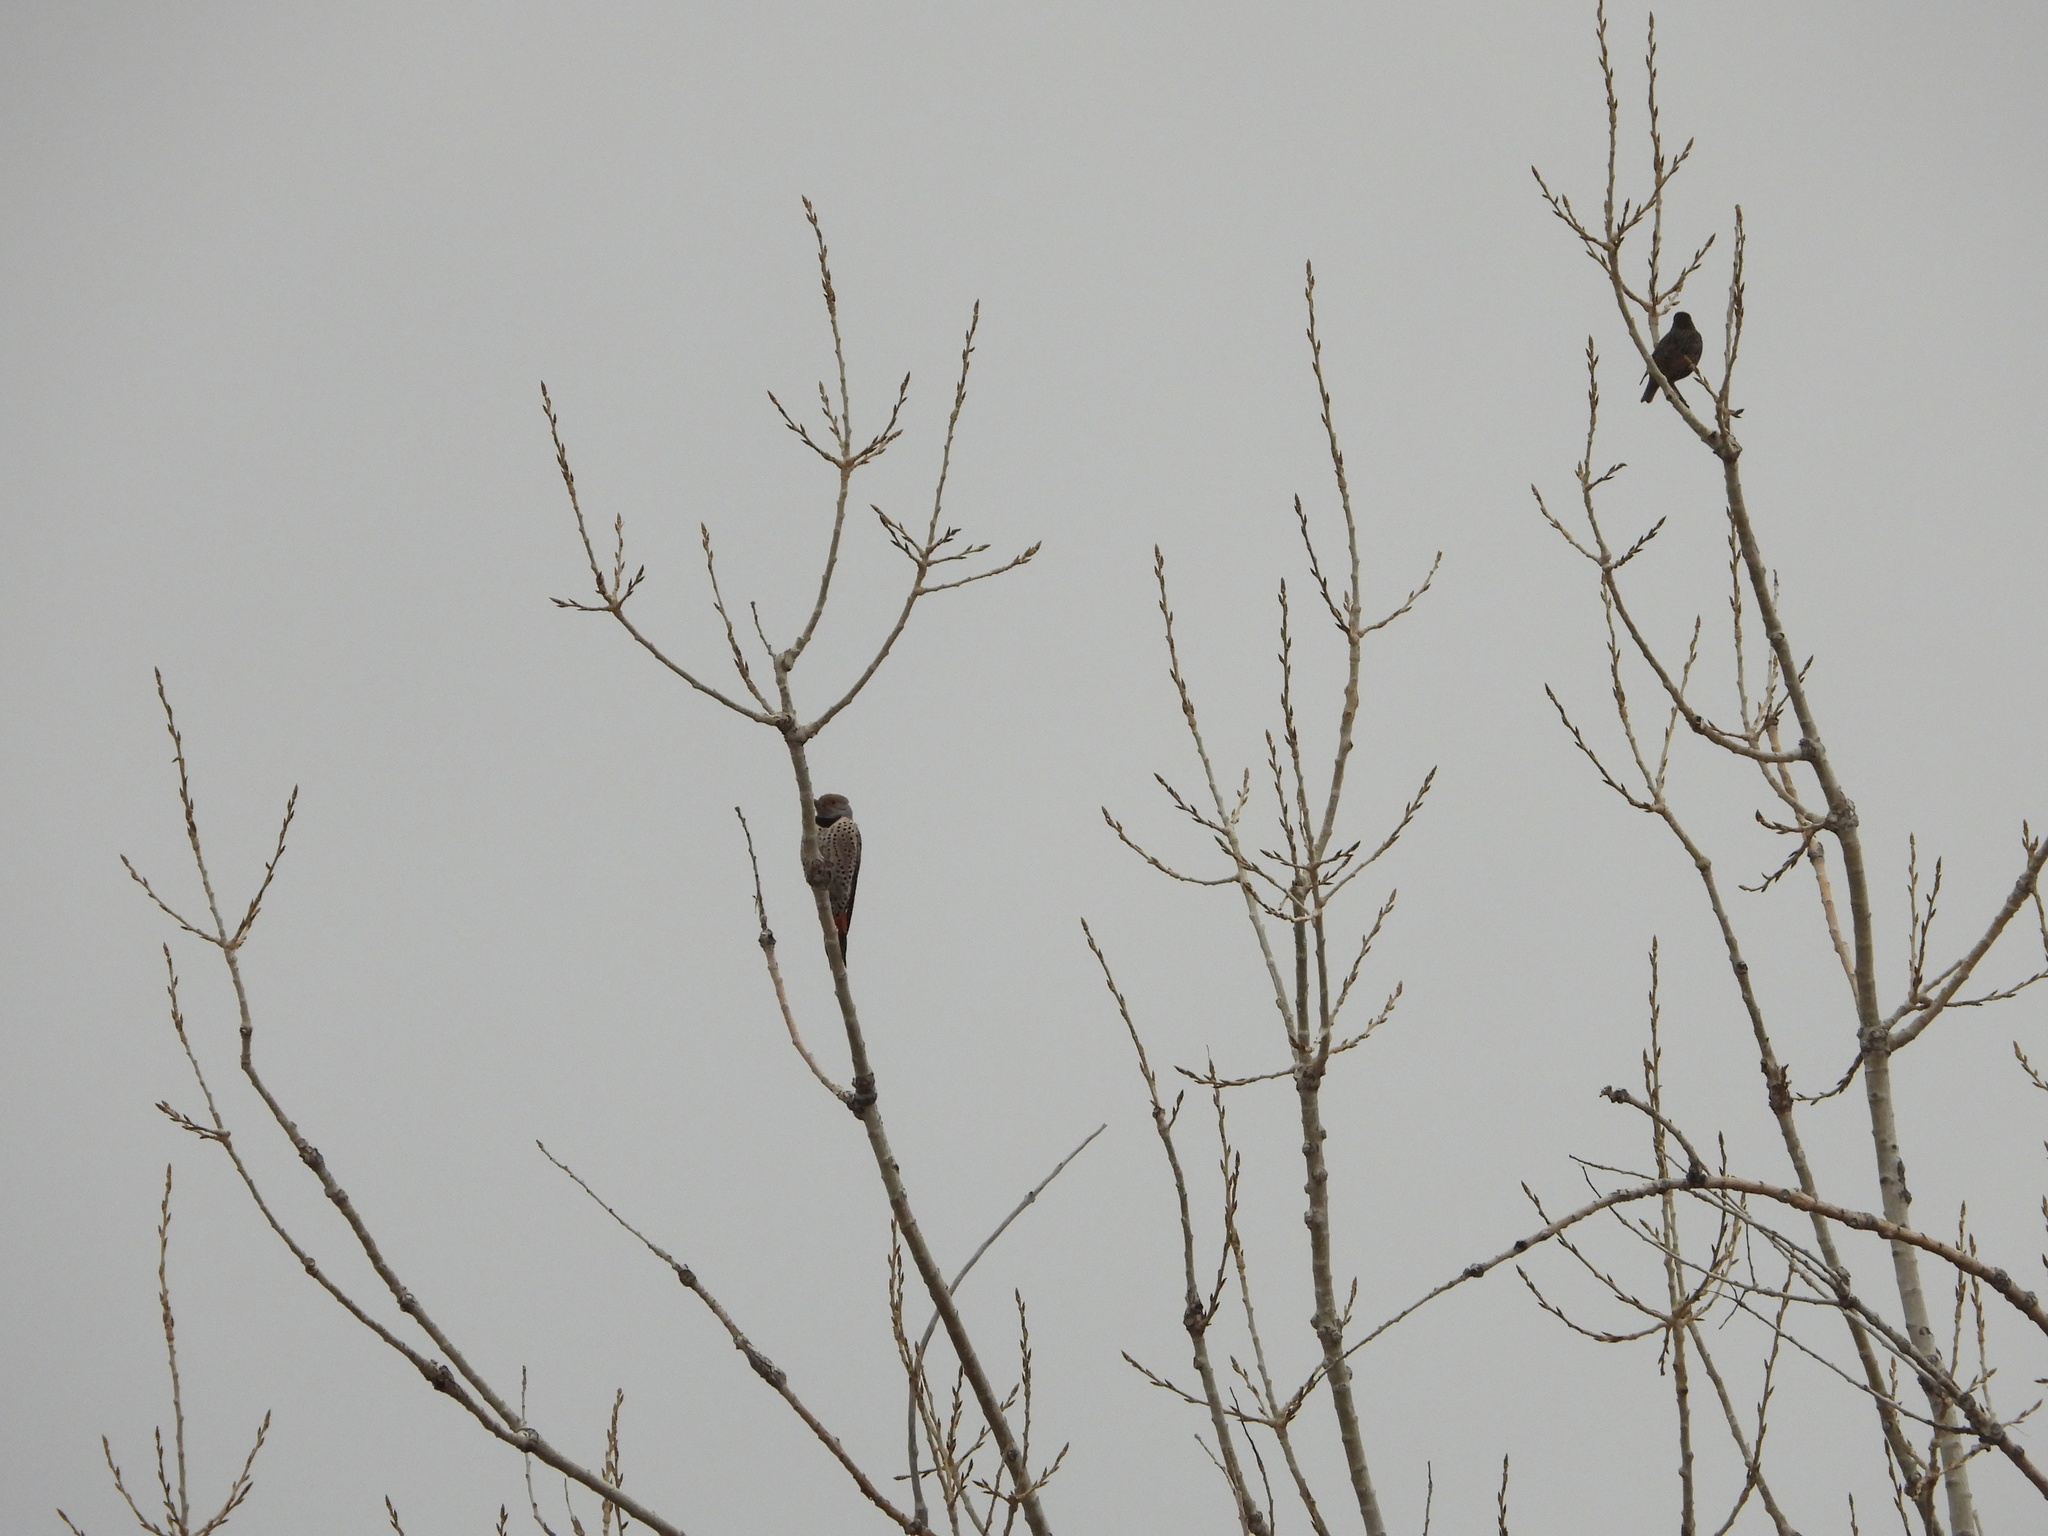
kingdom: Animalia
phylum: Chordata
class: Aves
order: Piciformes
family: Picidae
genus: Colaptes
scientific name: Colaptes auratus
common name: Northern flicker
